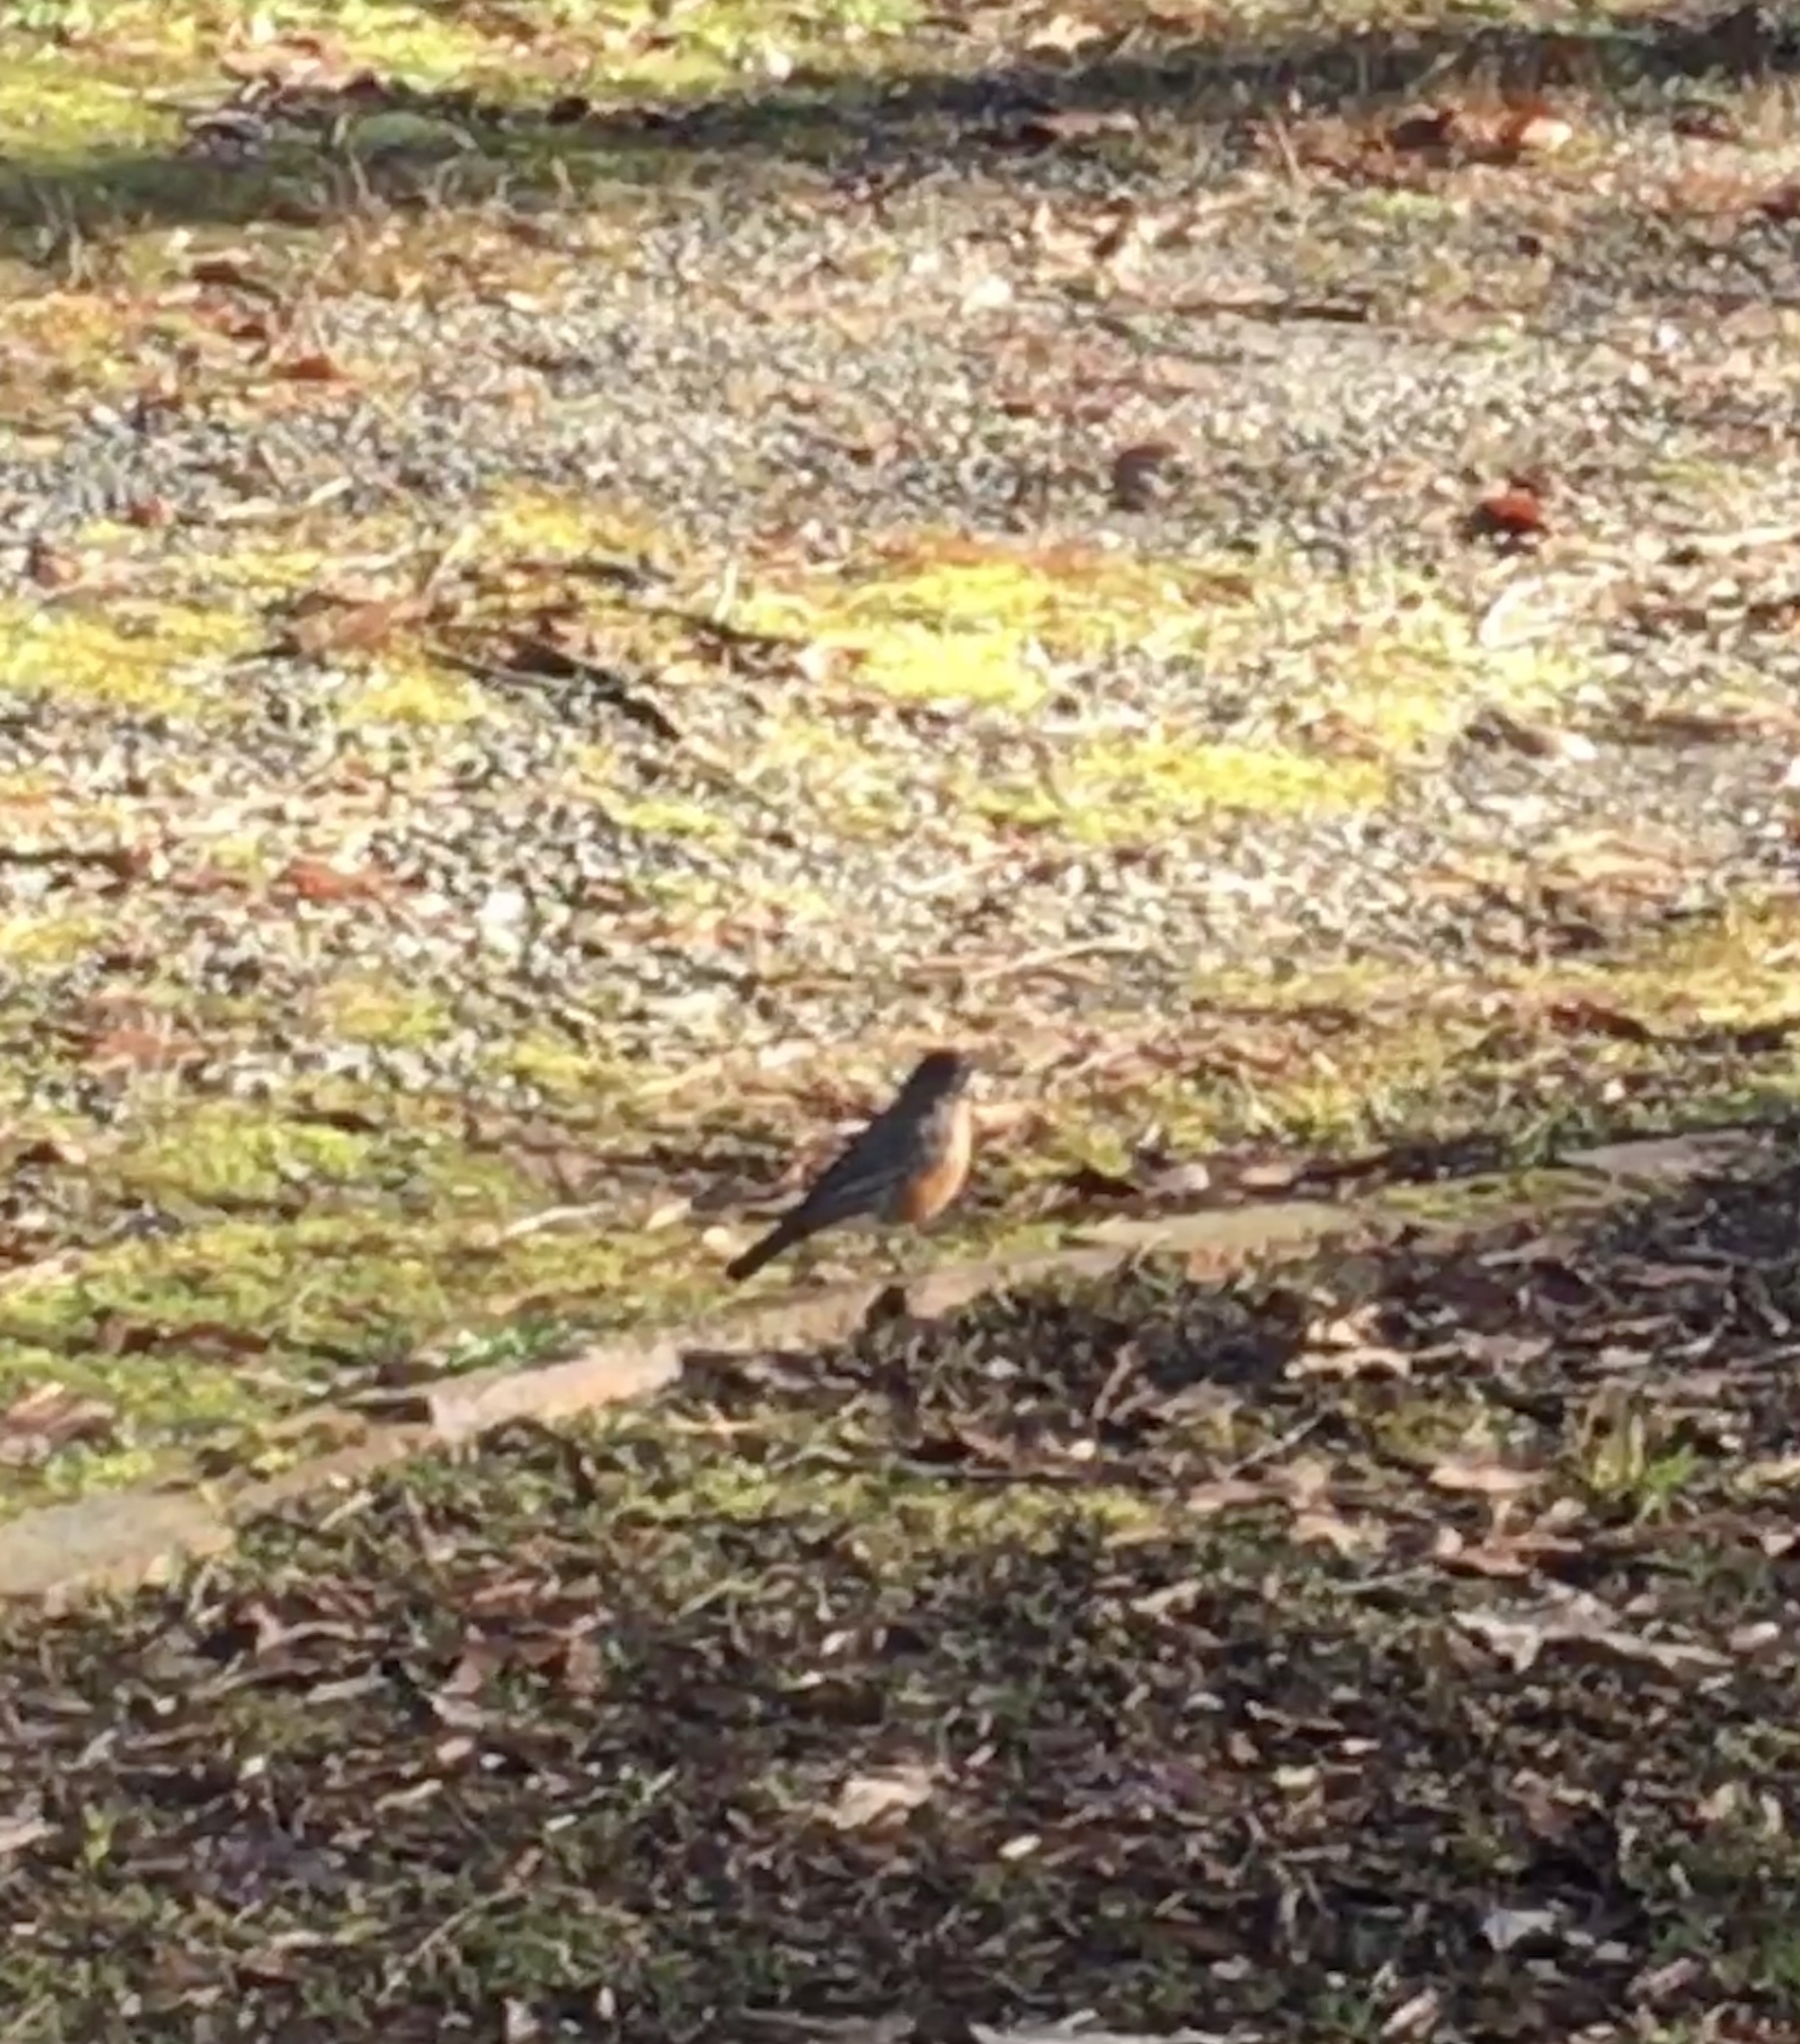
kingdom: Animalia
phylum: Chordata
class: Aves
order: Passeriformes
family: Turdidae
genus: Turdus
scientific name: Turdus migratorius
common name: American robin
